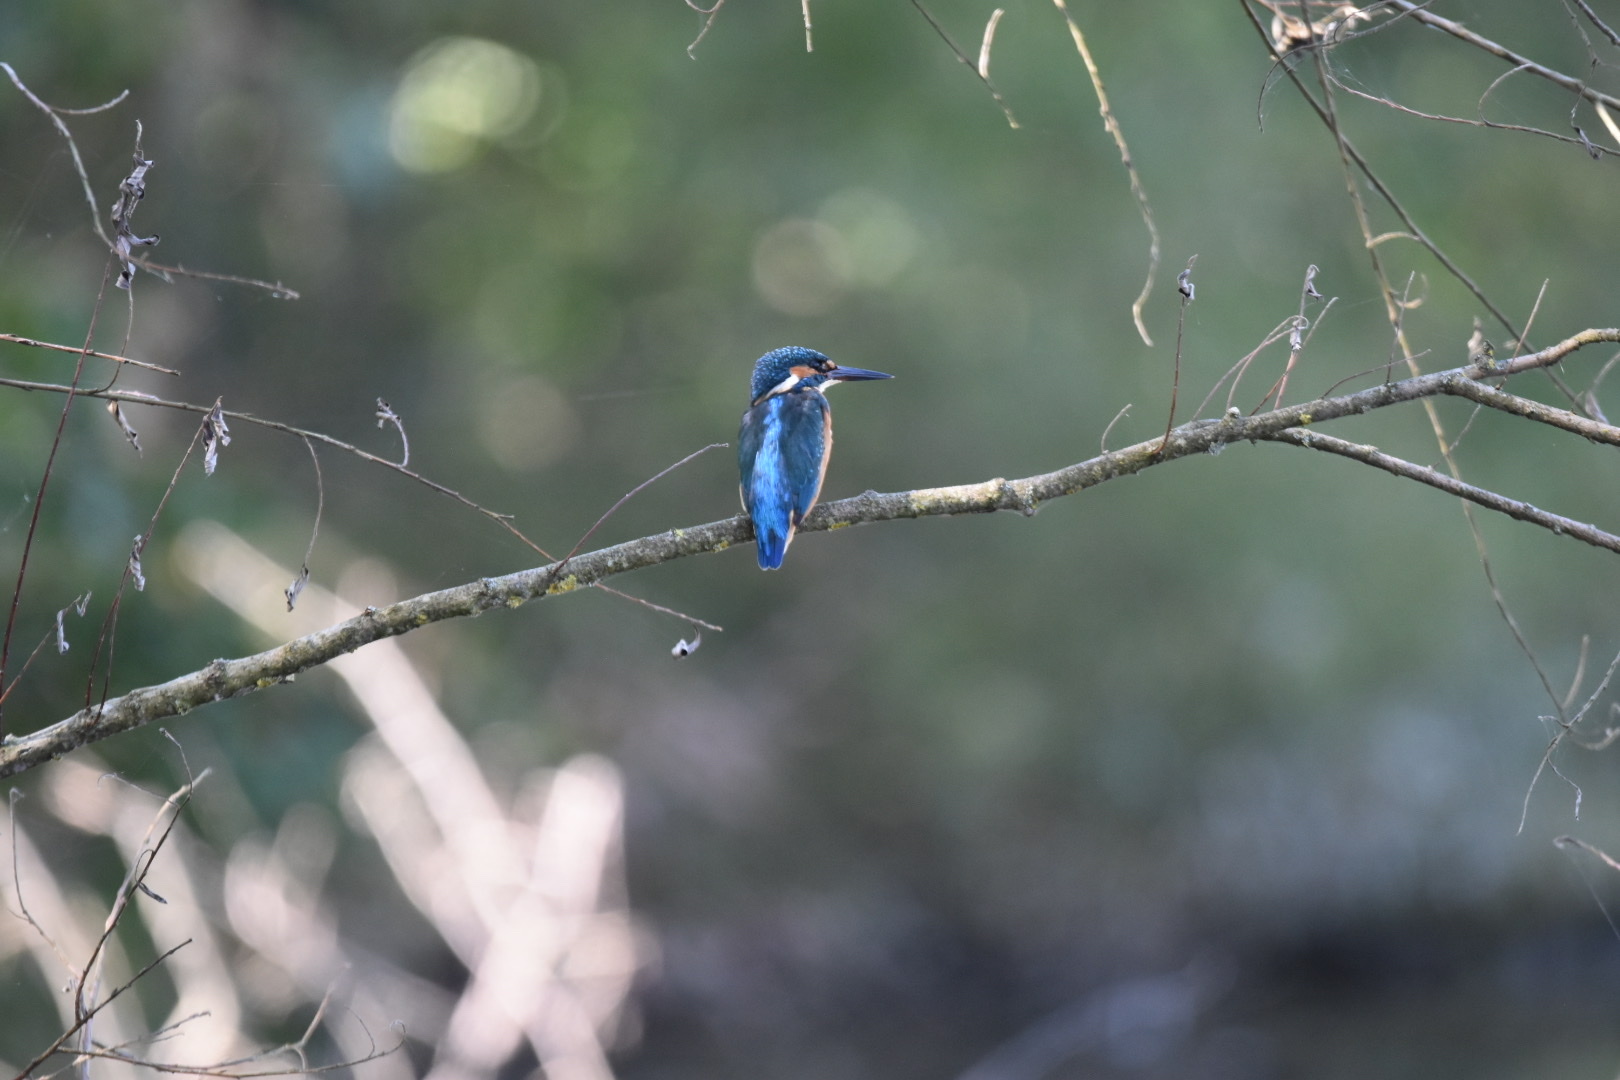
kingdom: Animalia
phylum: Chordata
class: Aves
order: Coraciiformes
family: Alcedinidae
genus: Alcedo
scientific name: Alcedo atthis
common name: Common kingfisher
